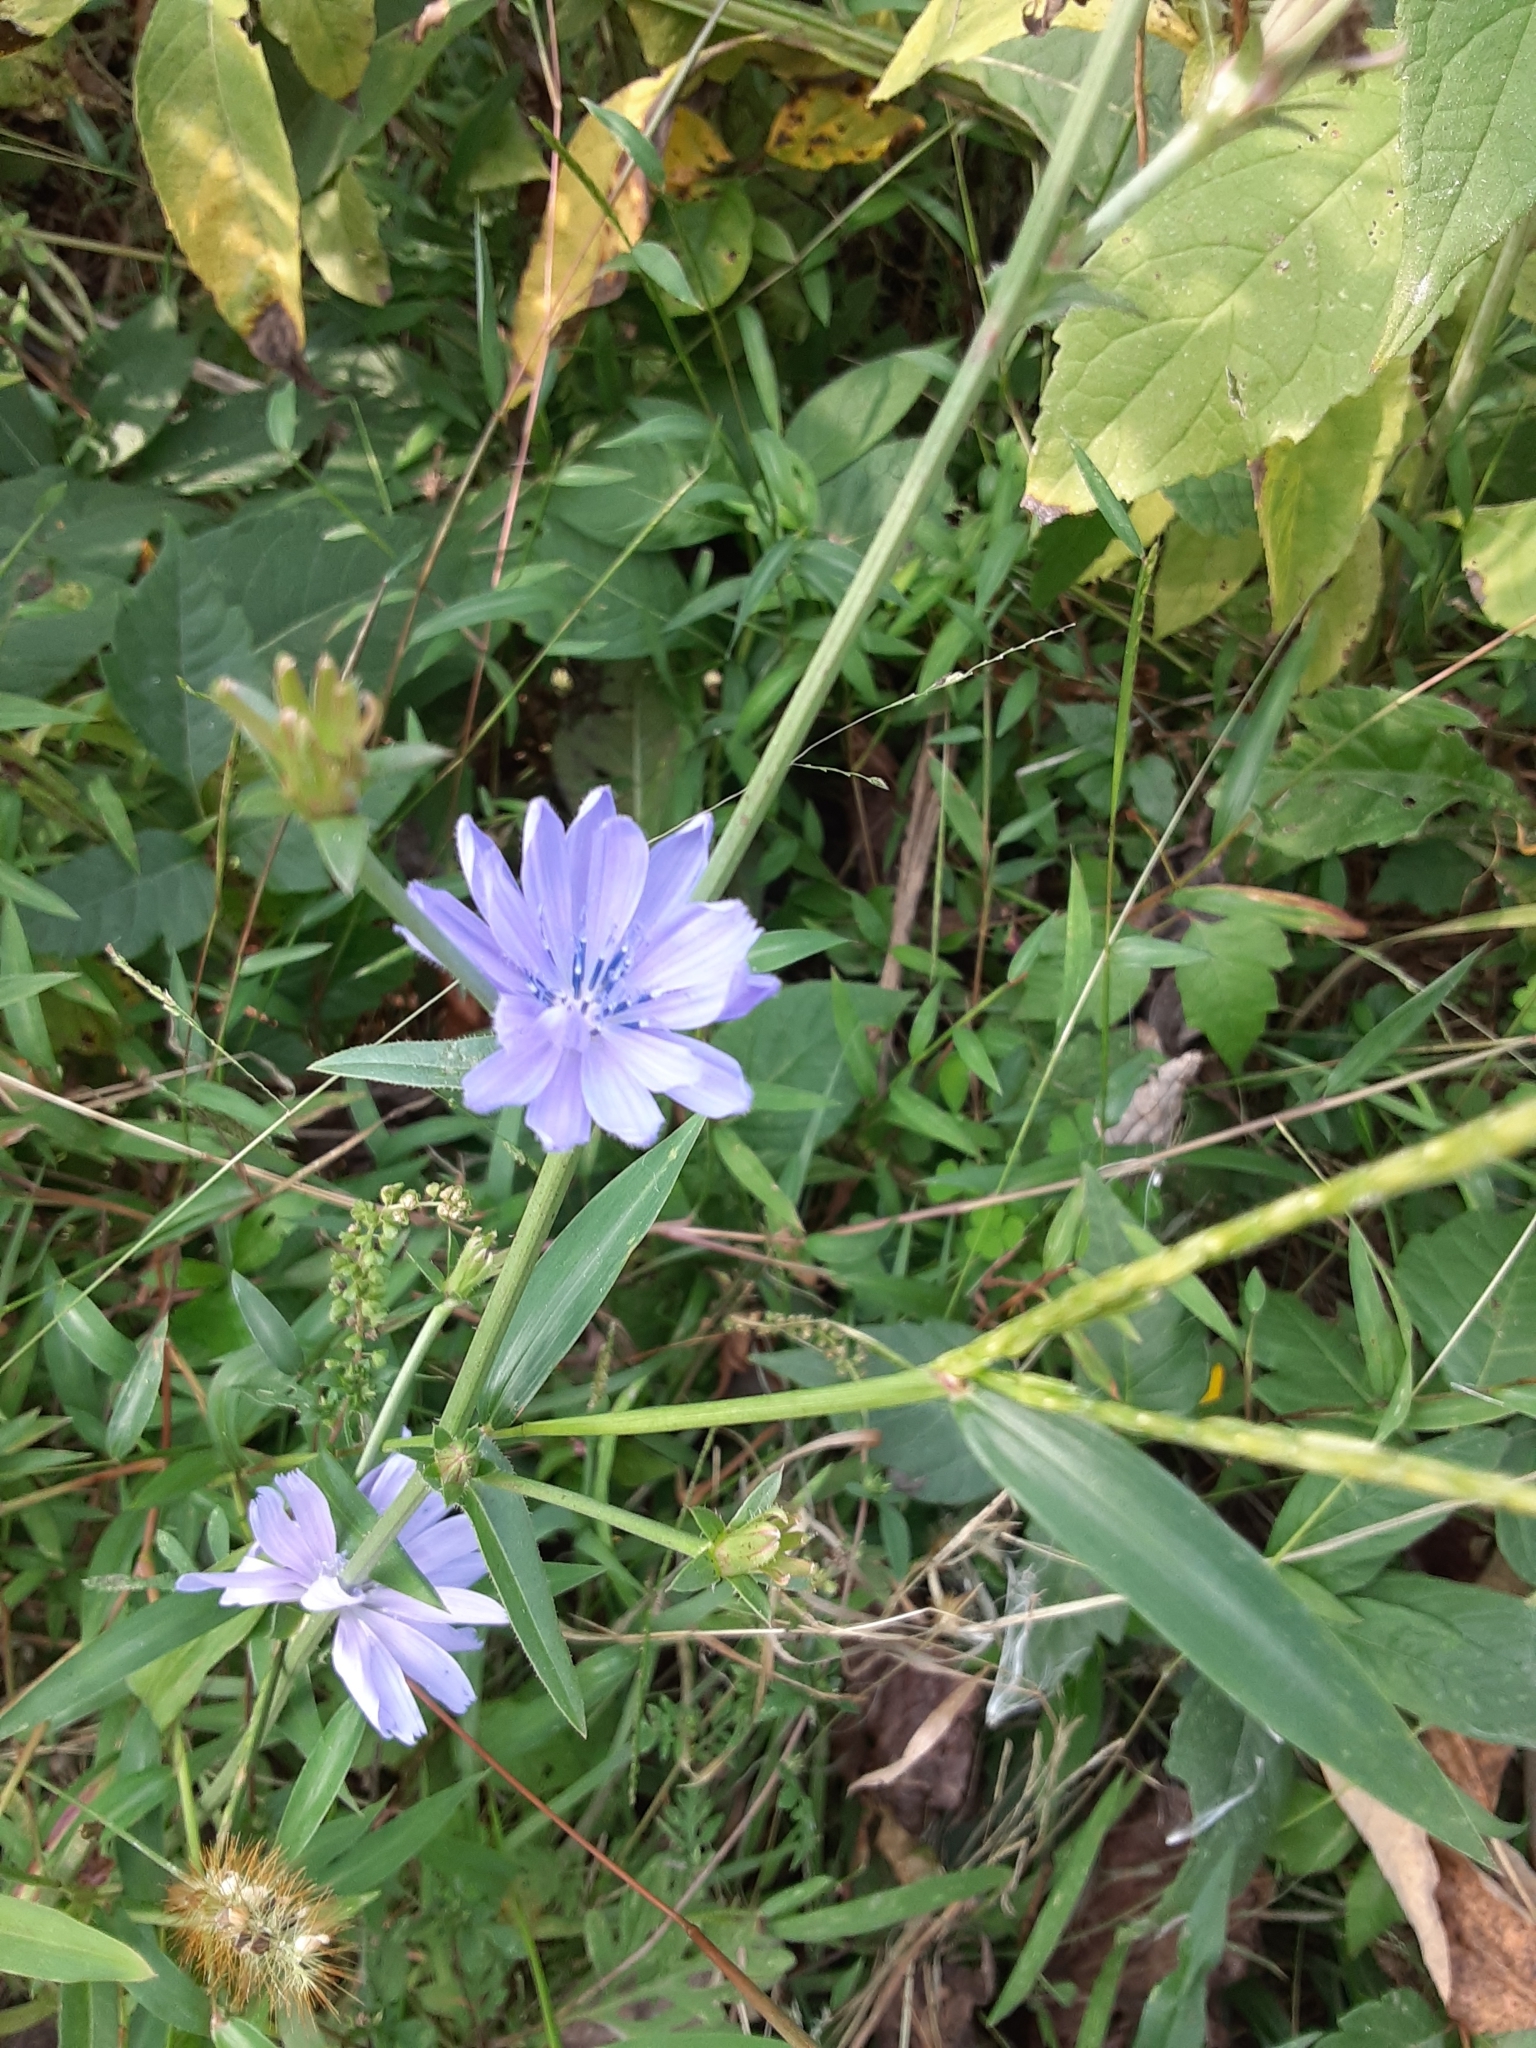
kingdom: Plantae
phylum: Tracheophyta
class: Magnoliopsida
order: Asterales
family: Asteraceae
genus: Cichorium
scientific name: Cichorium intybus
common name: Chicory
